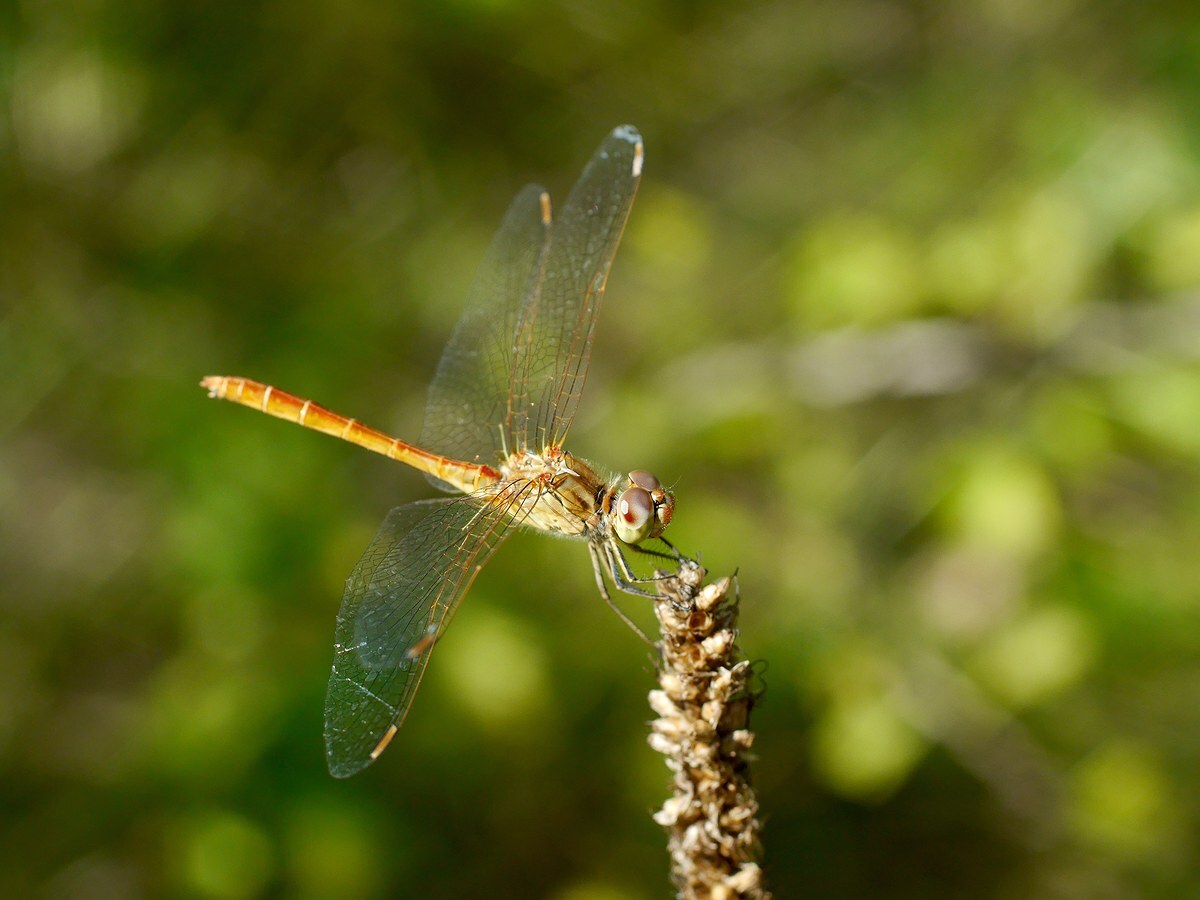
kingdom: Animalia
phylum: Arthropoda
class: Insecta
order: Odonata
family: Libellulidae
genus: Sympetrum
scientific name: Sympetrum meridionale
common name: Southern darter
